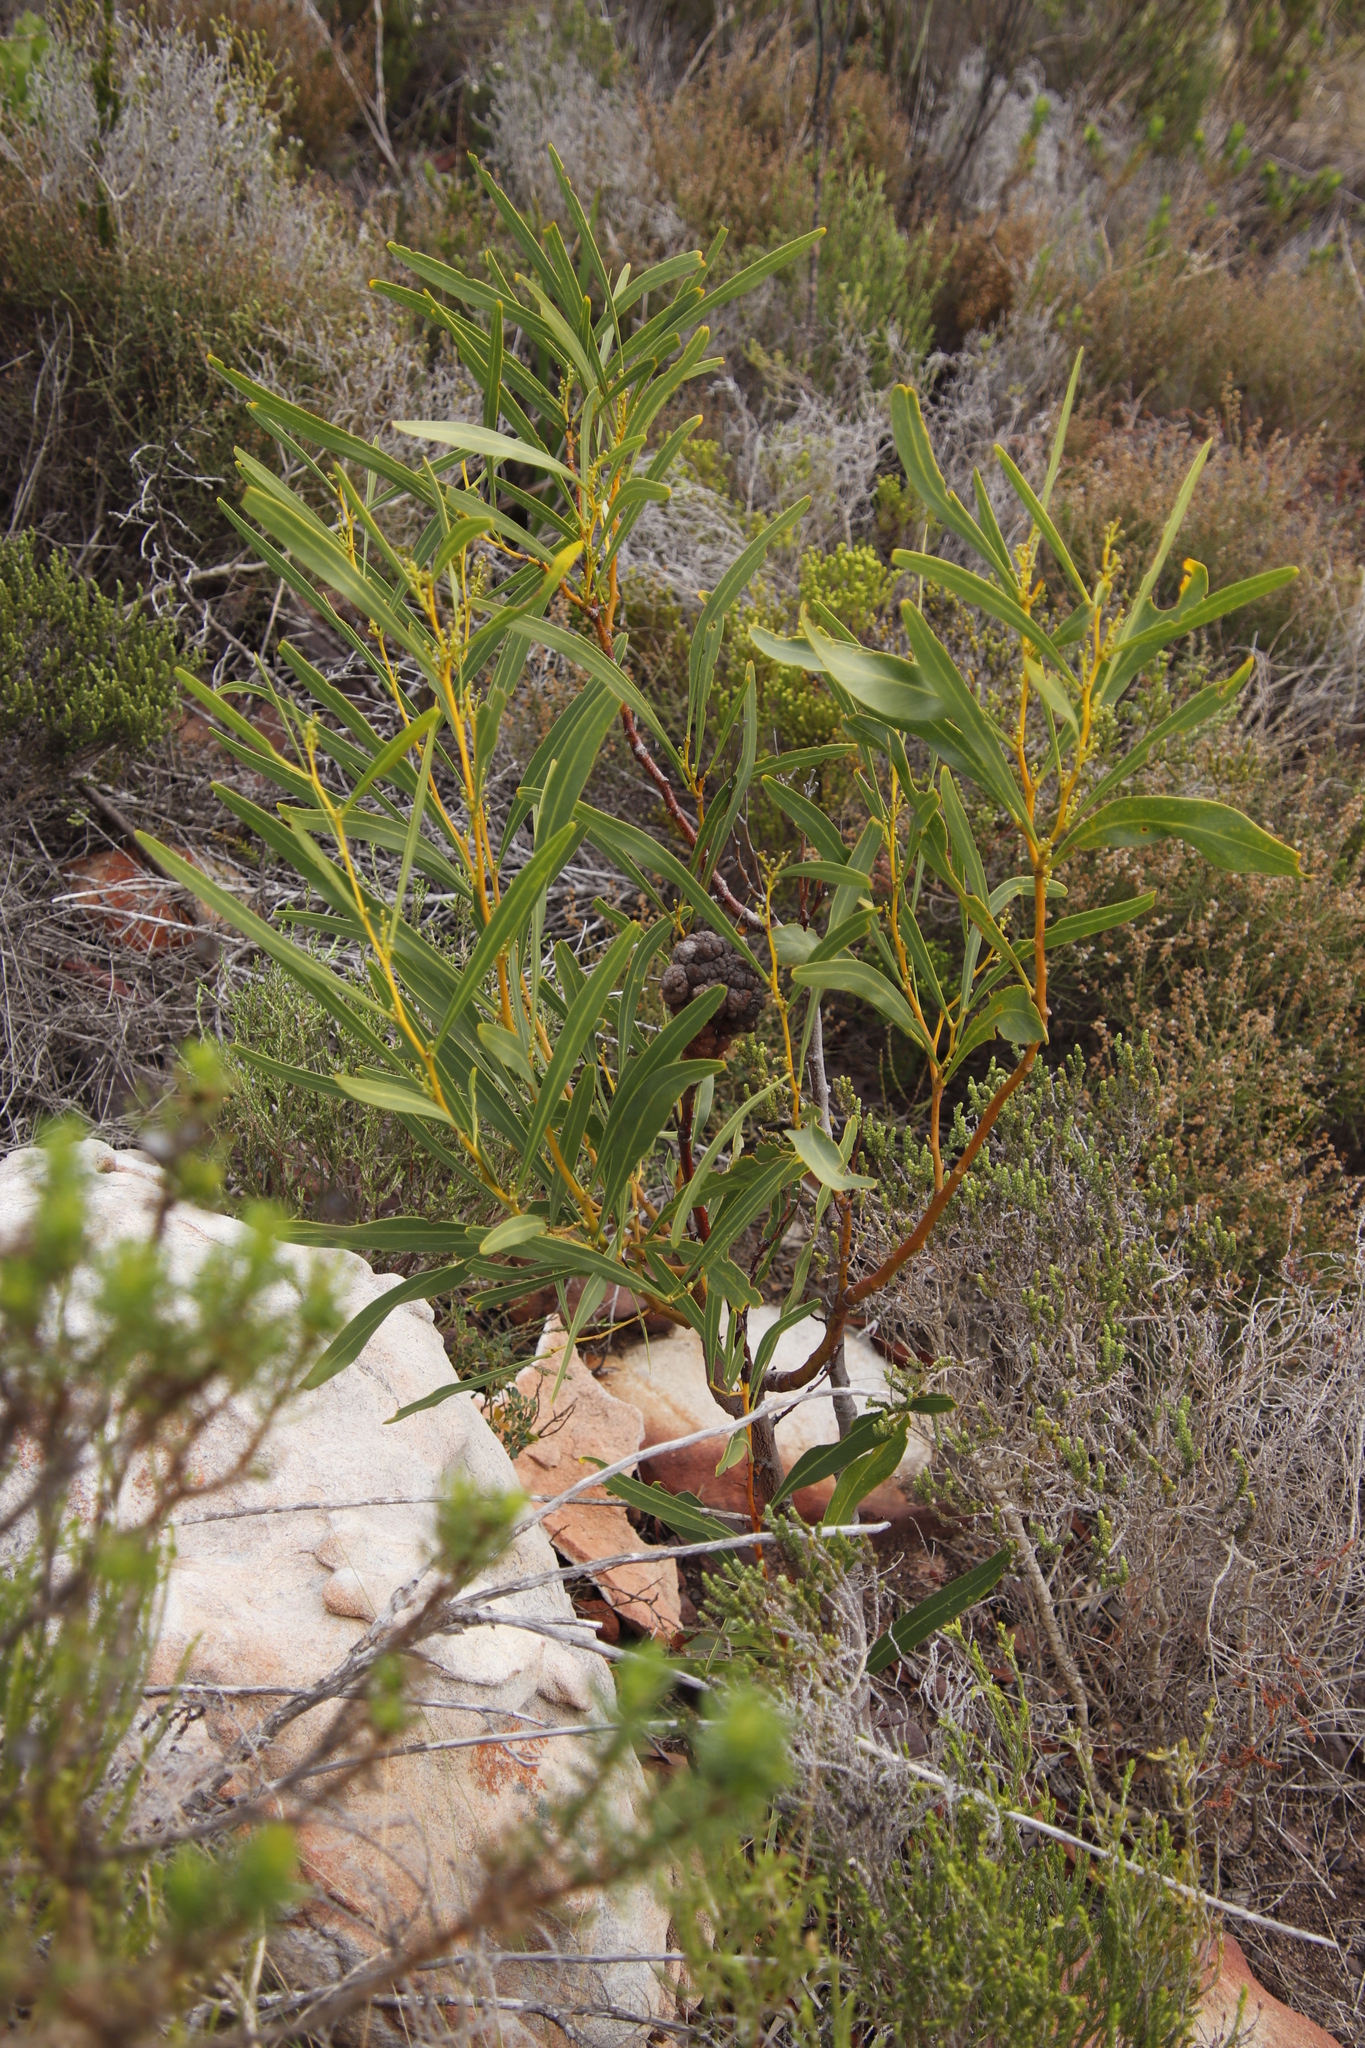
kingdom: Plantae
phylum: Tracheophyta
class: Magnoliopsida
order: Fabales
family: Fabaceae
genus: Acacia
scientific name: Acacia saligna
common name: Orange wattle
